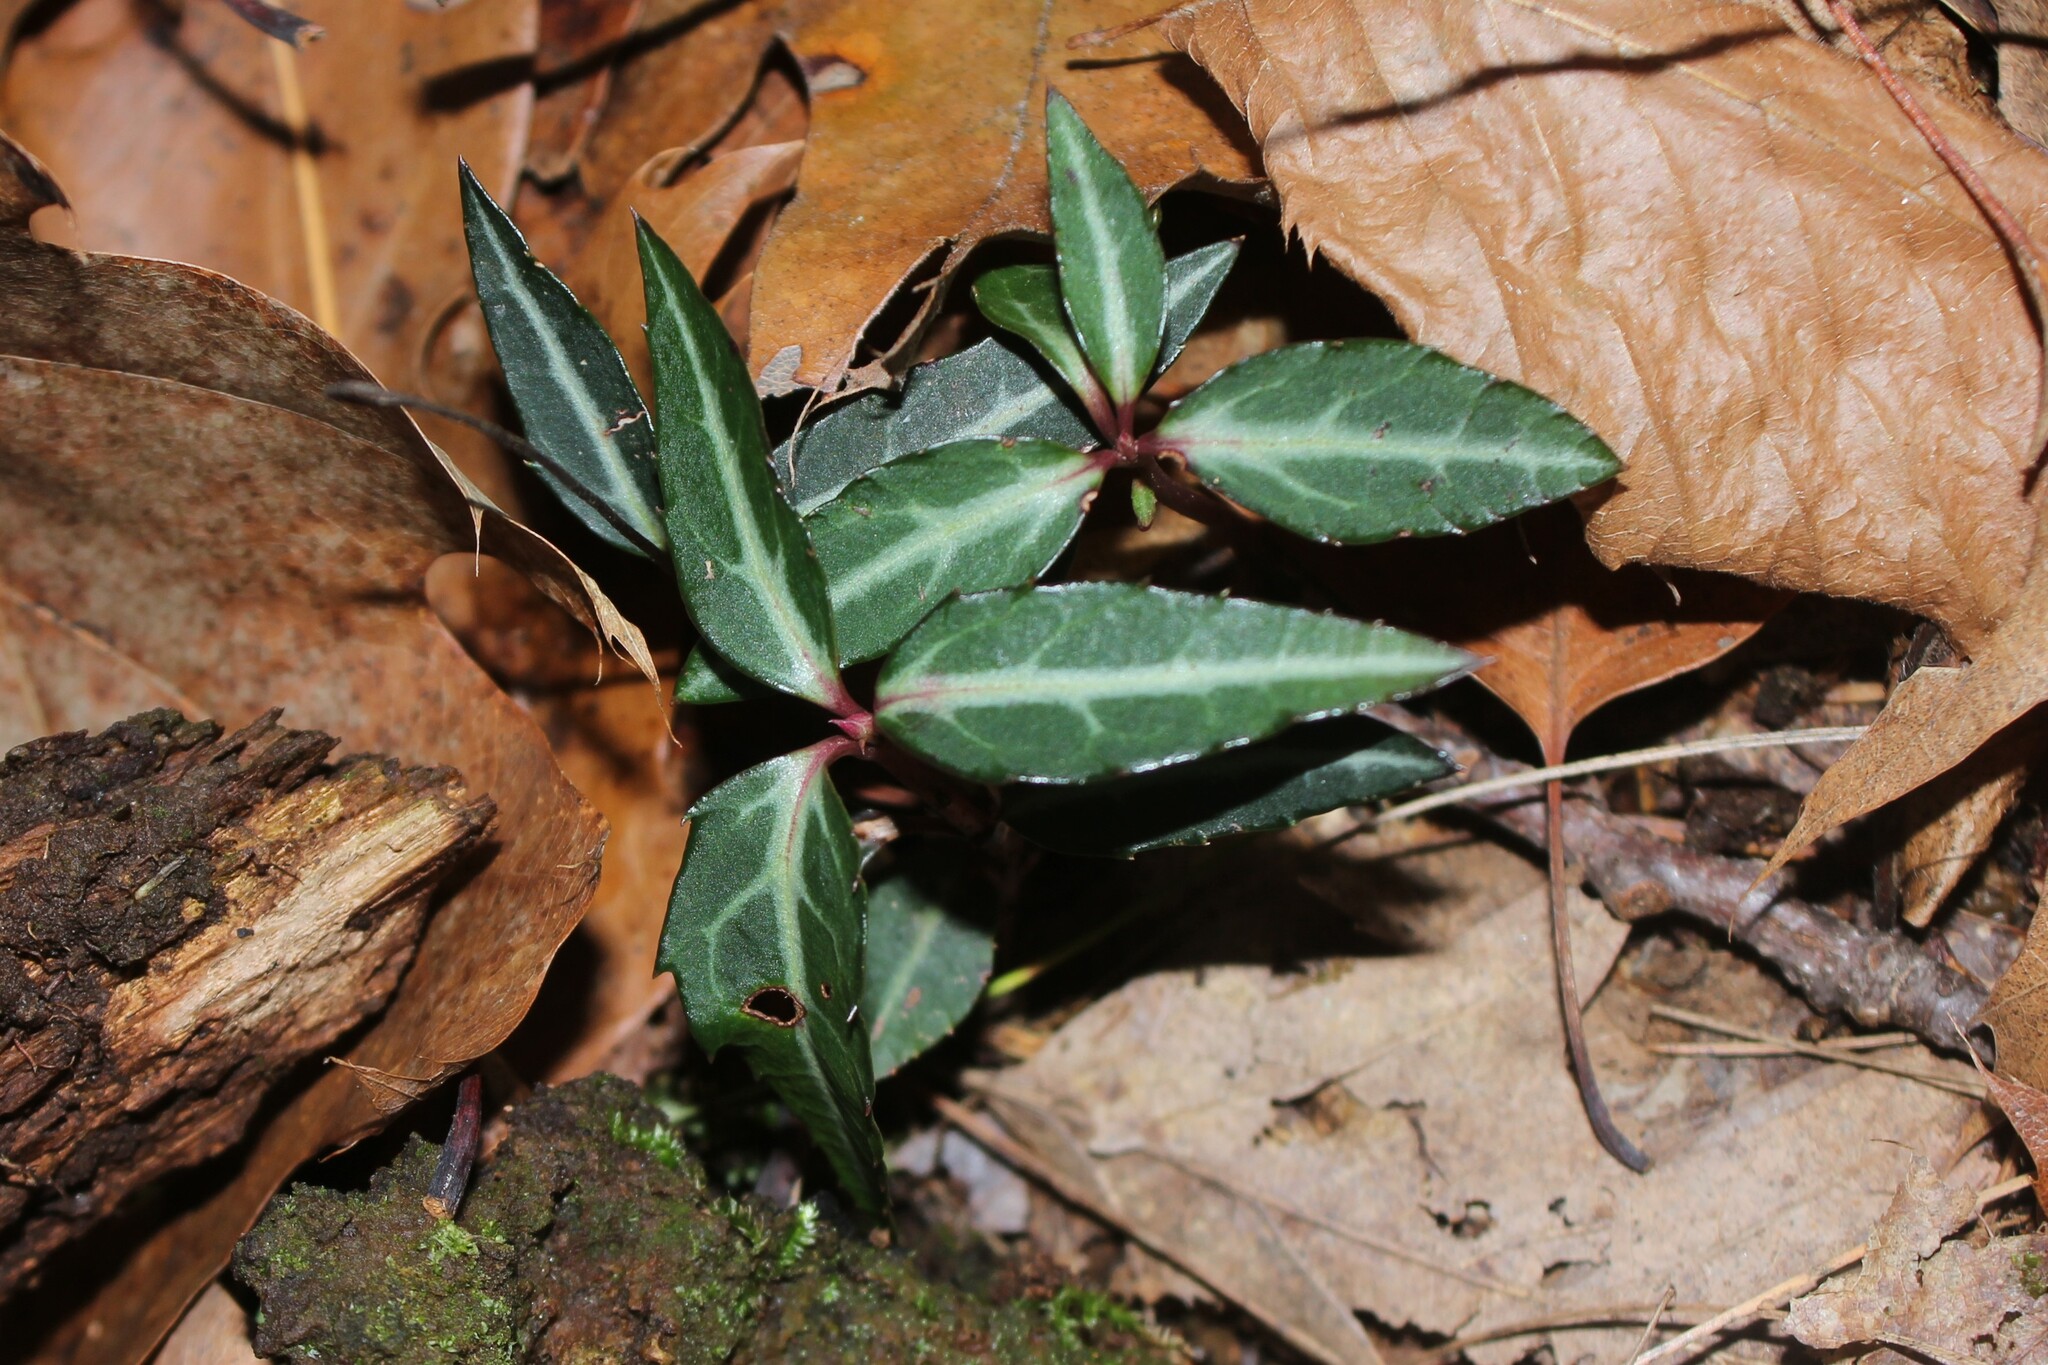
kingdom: Plantae
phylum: Tracheophyta
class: Magnoliopsida
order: Ericales
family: Ericaceae
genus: Chimaphila
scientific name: Chimaphila maculata
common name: Spotted pipsissewa
